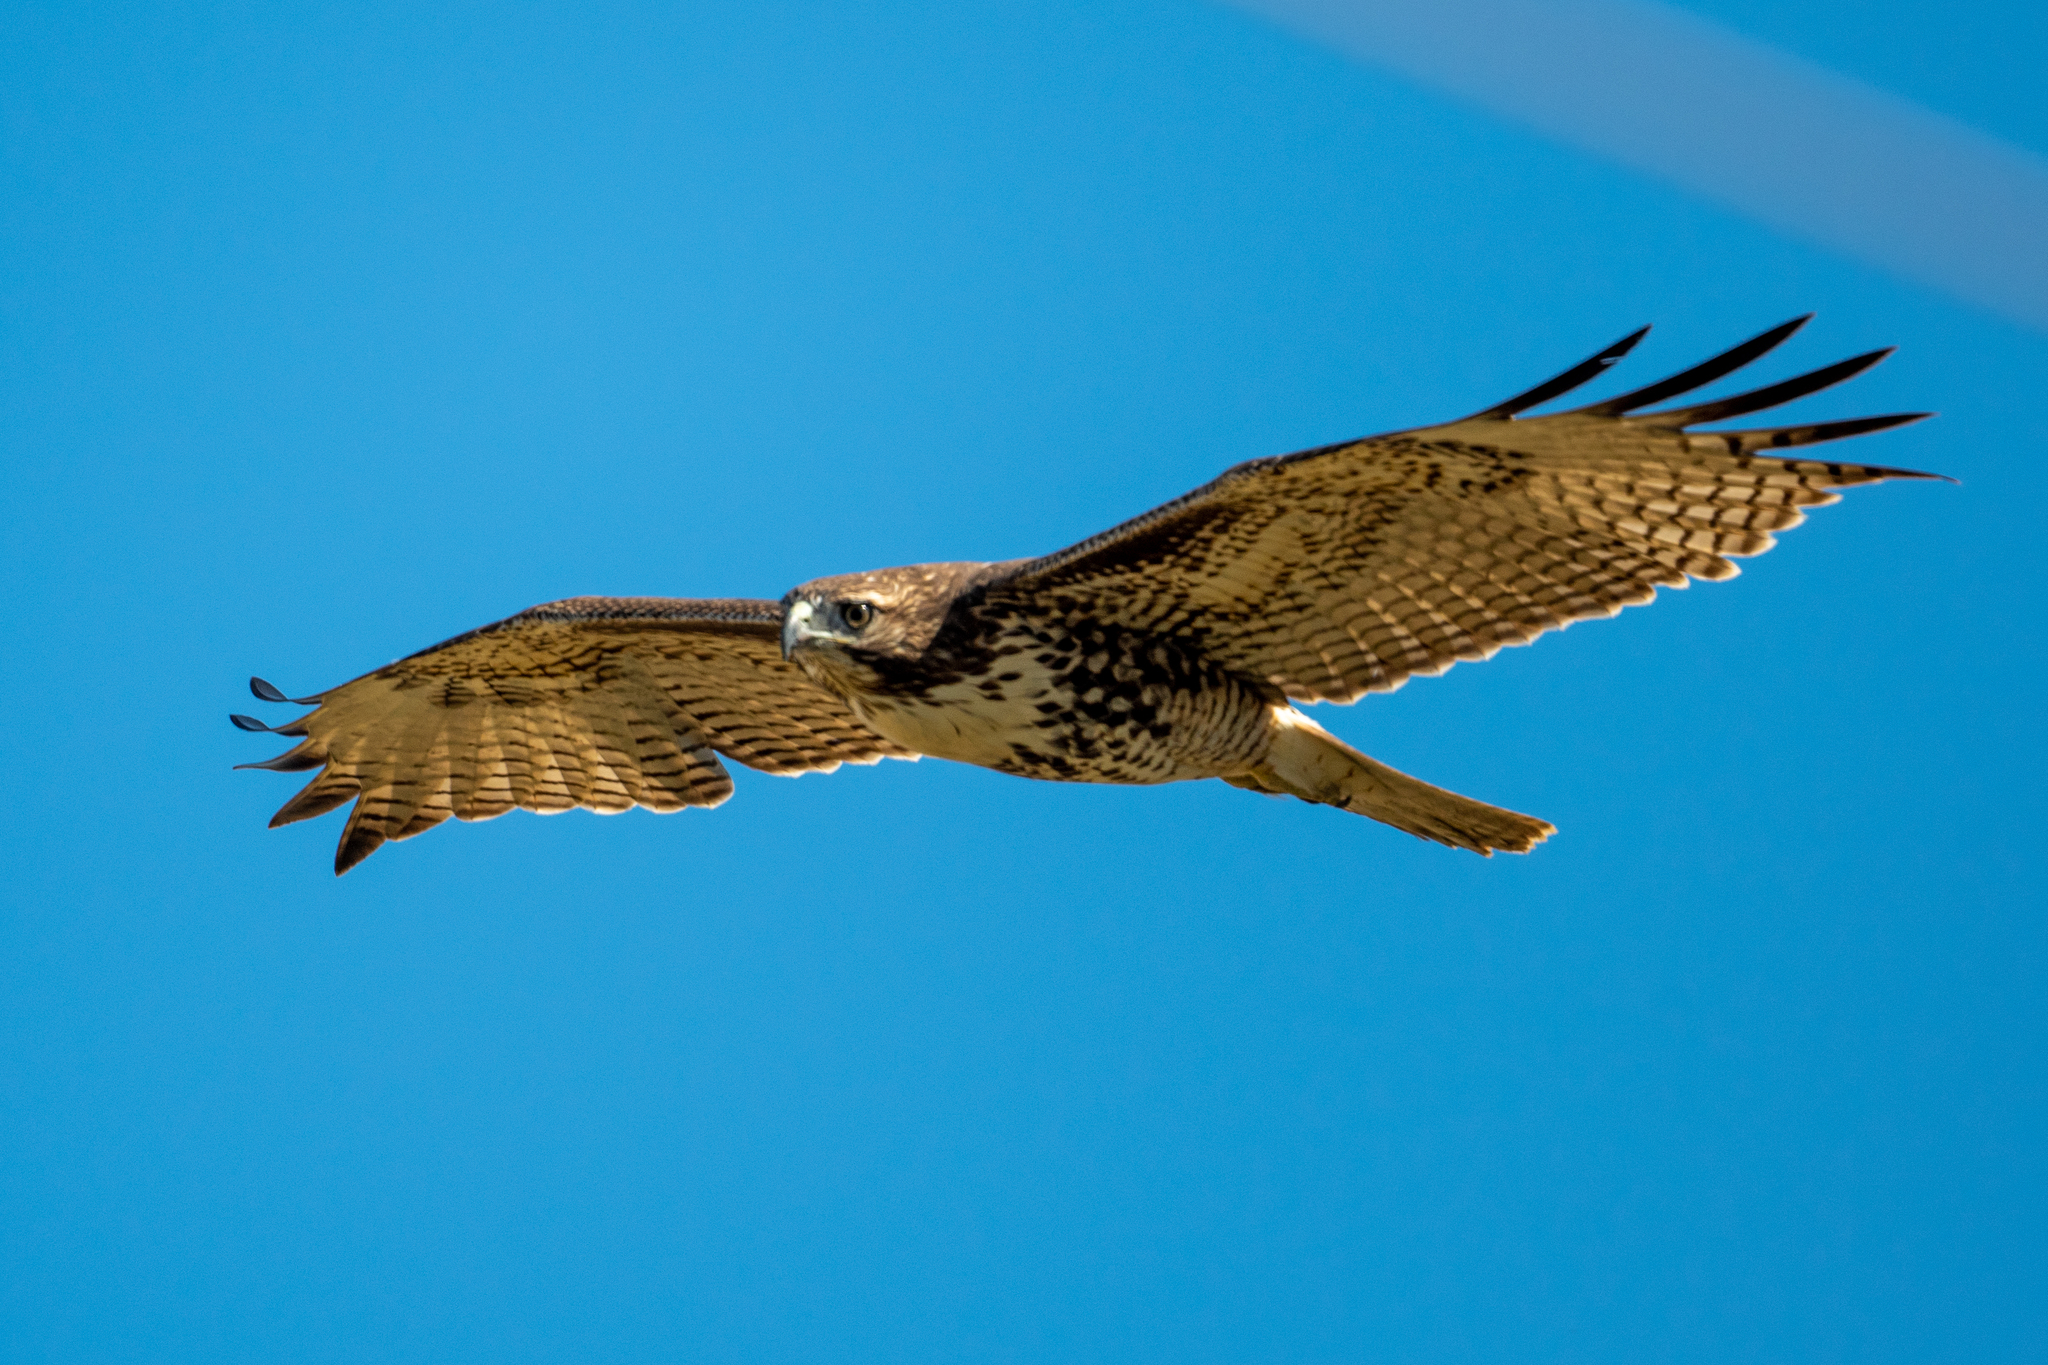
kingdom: Animalia
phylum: Chordata
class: Aves
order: Accipitriformes
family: Accipitridae
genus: Buteo
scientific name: Buteo jamaicensis
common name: Red-tailed hawk
